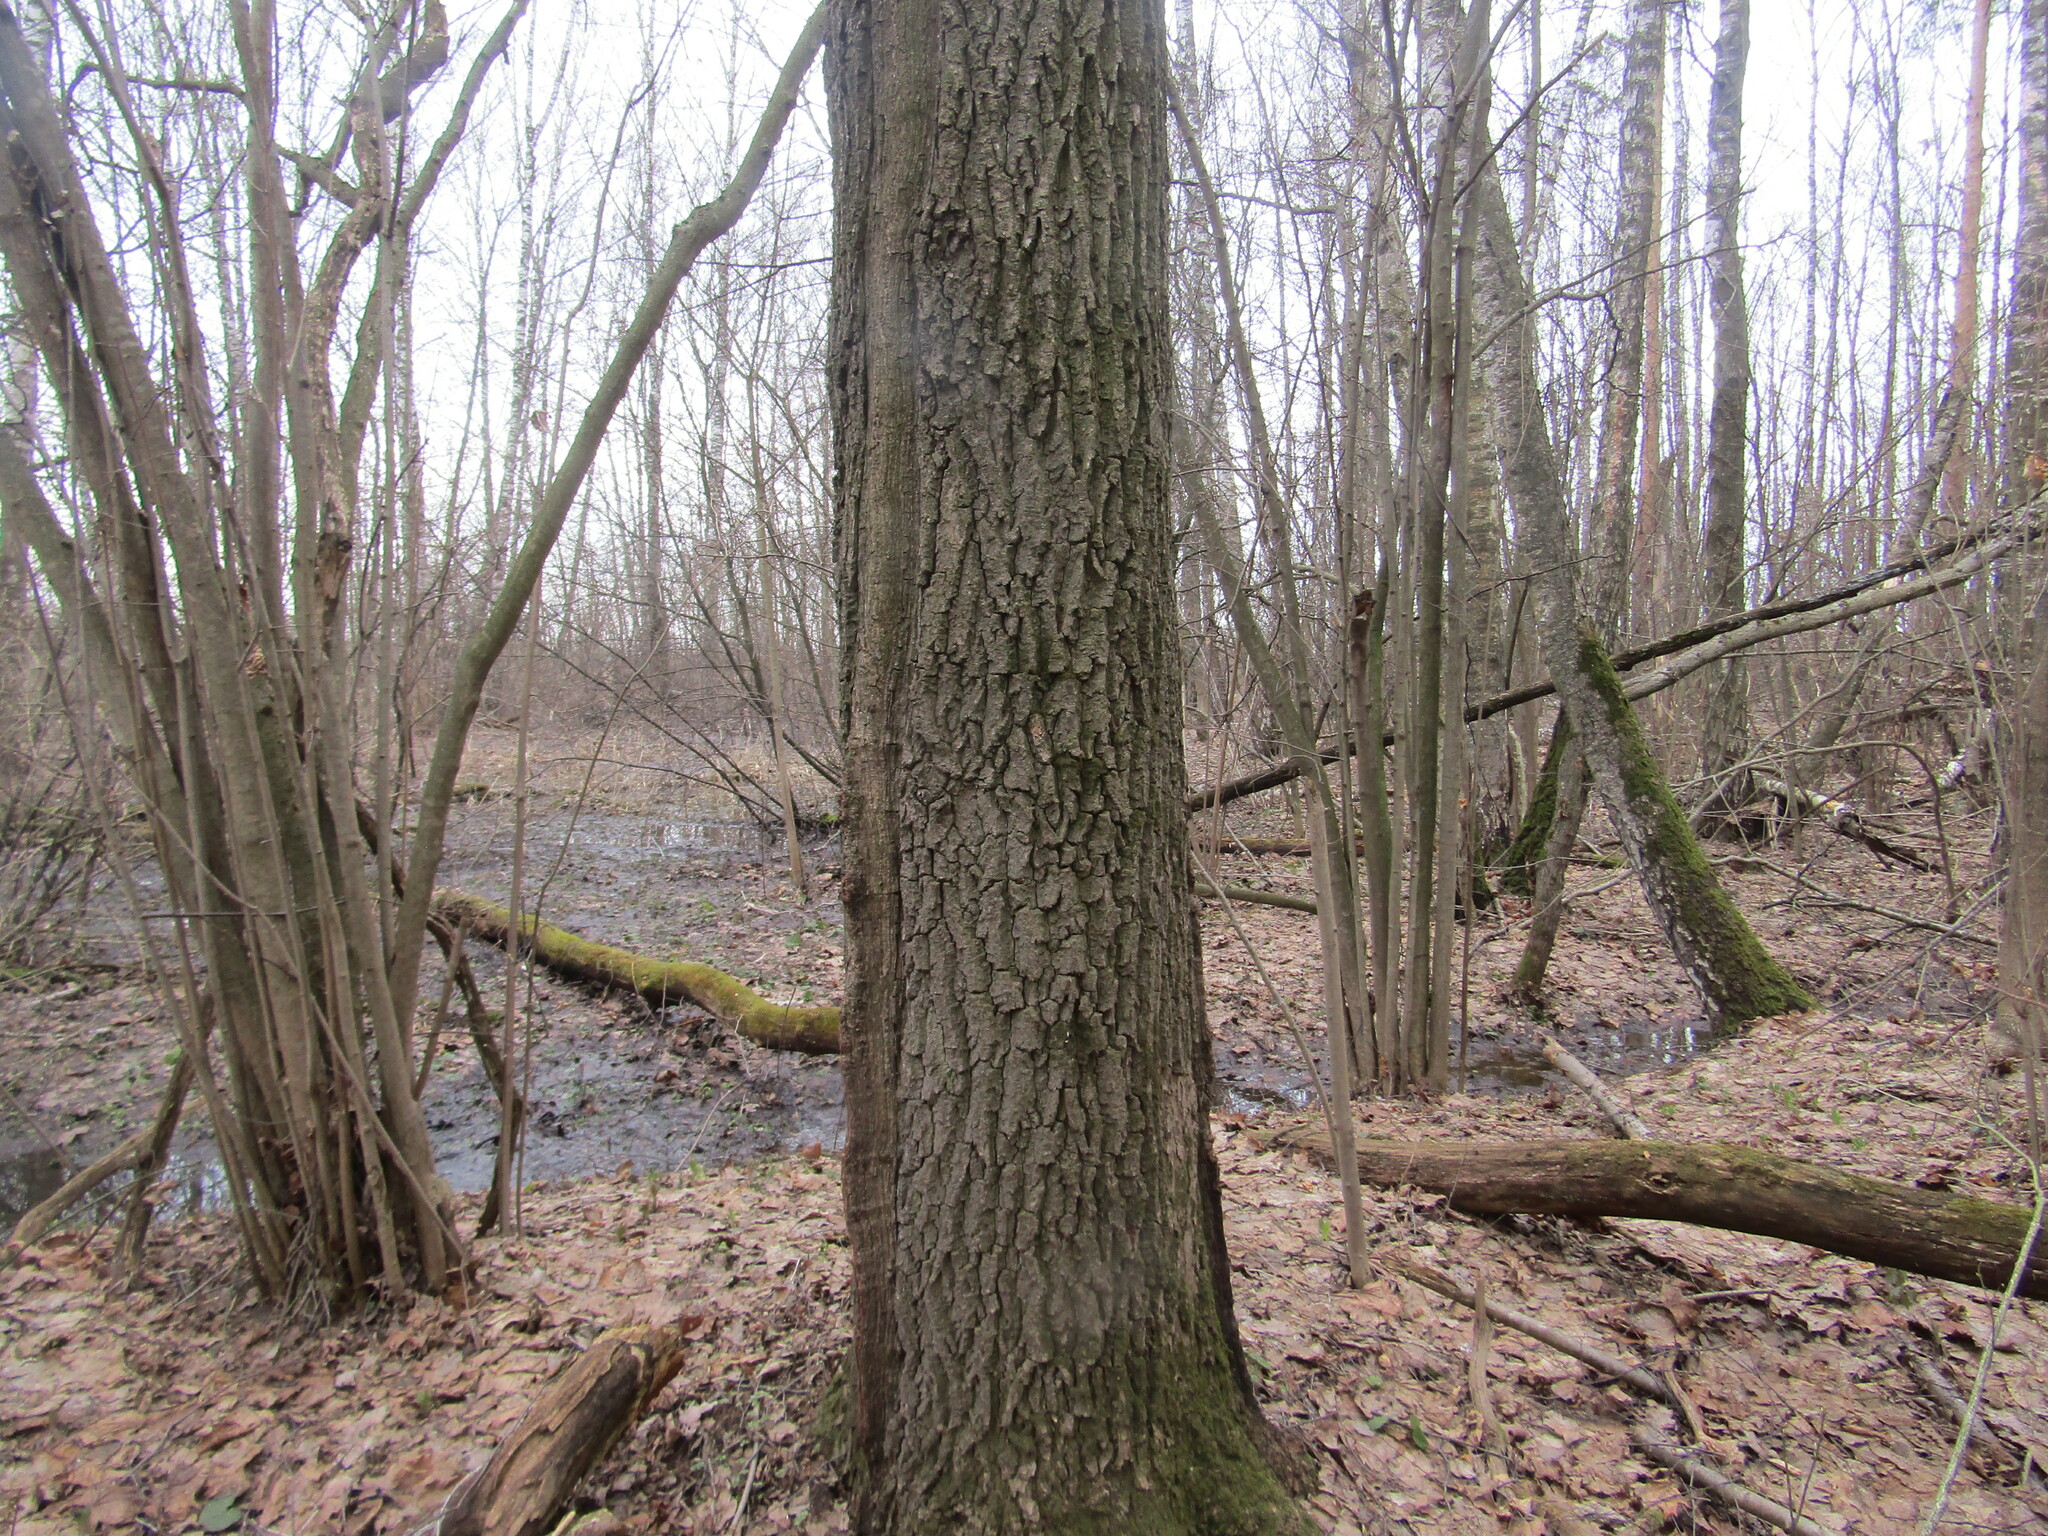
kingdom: Plantae
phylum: Tracheophyta
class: Magnoliopsida
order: Fagales
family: Fagaceae
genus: Quercus
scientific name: Quercus robur
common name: Pedunculate oak
